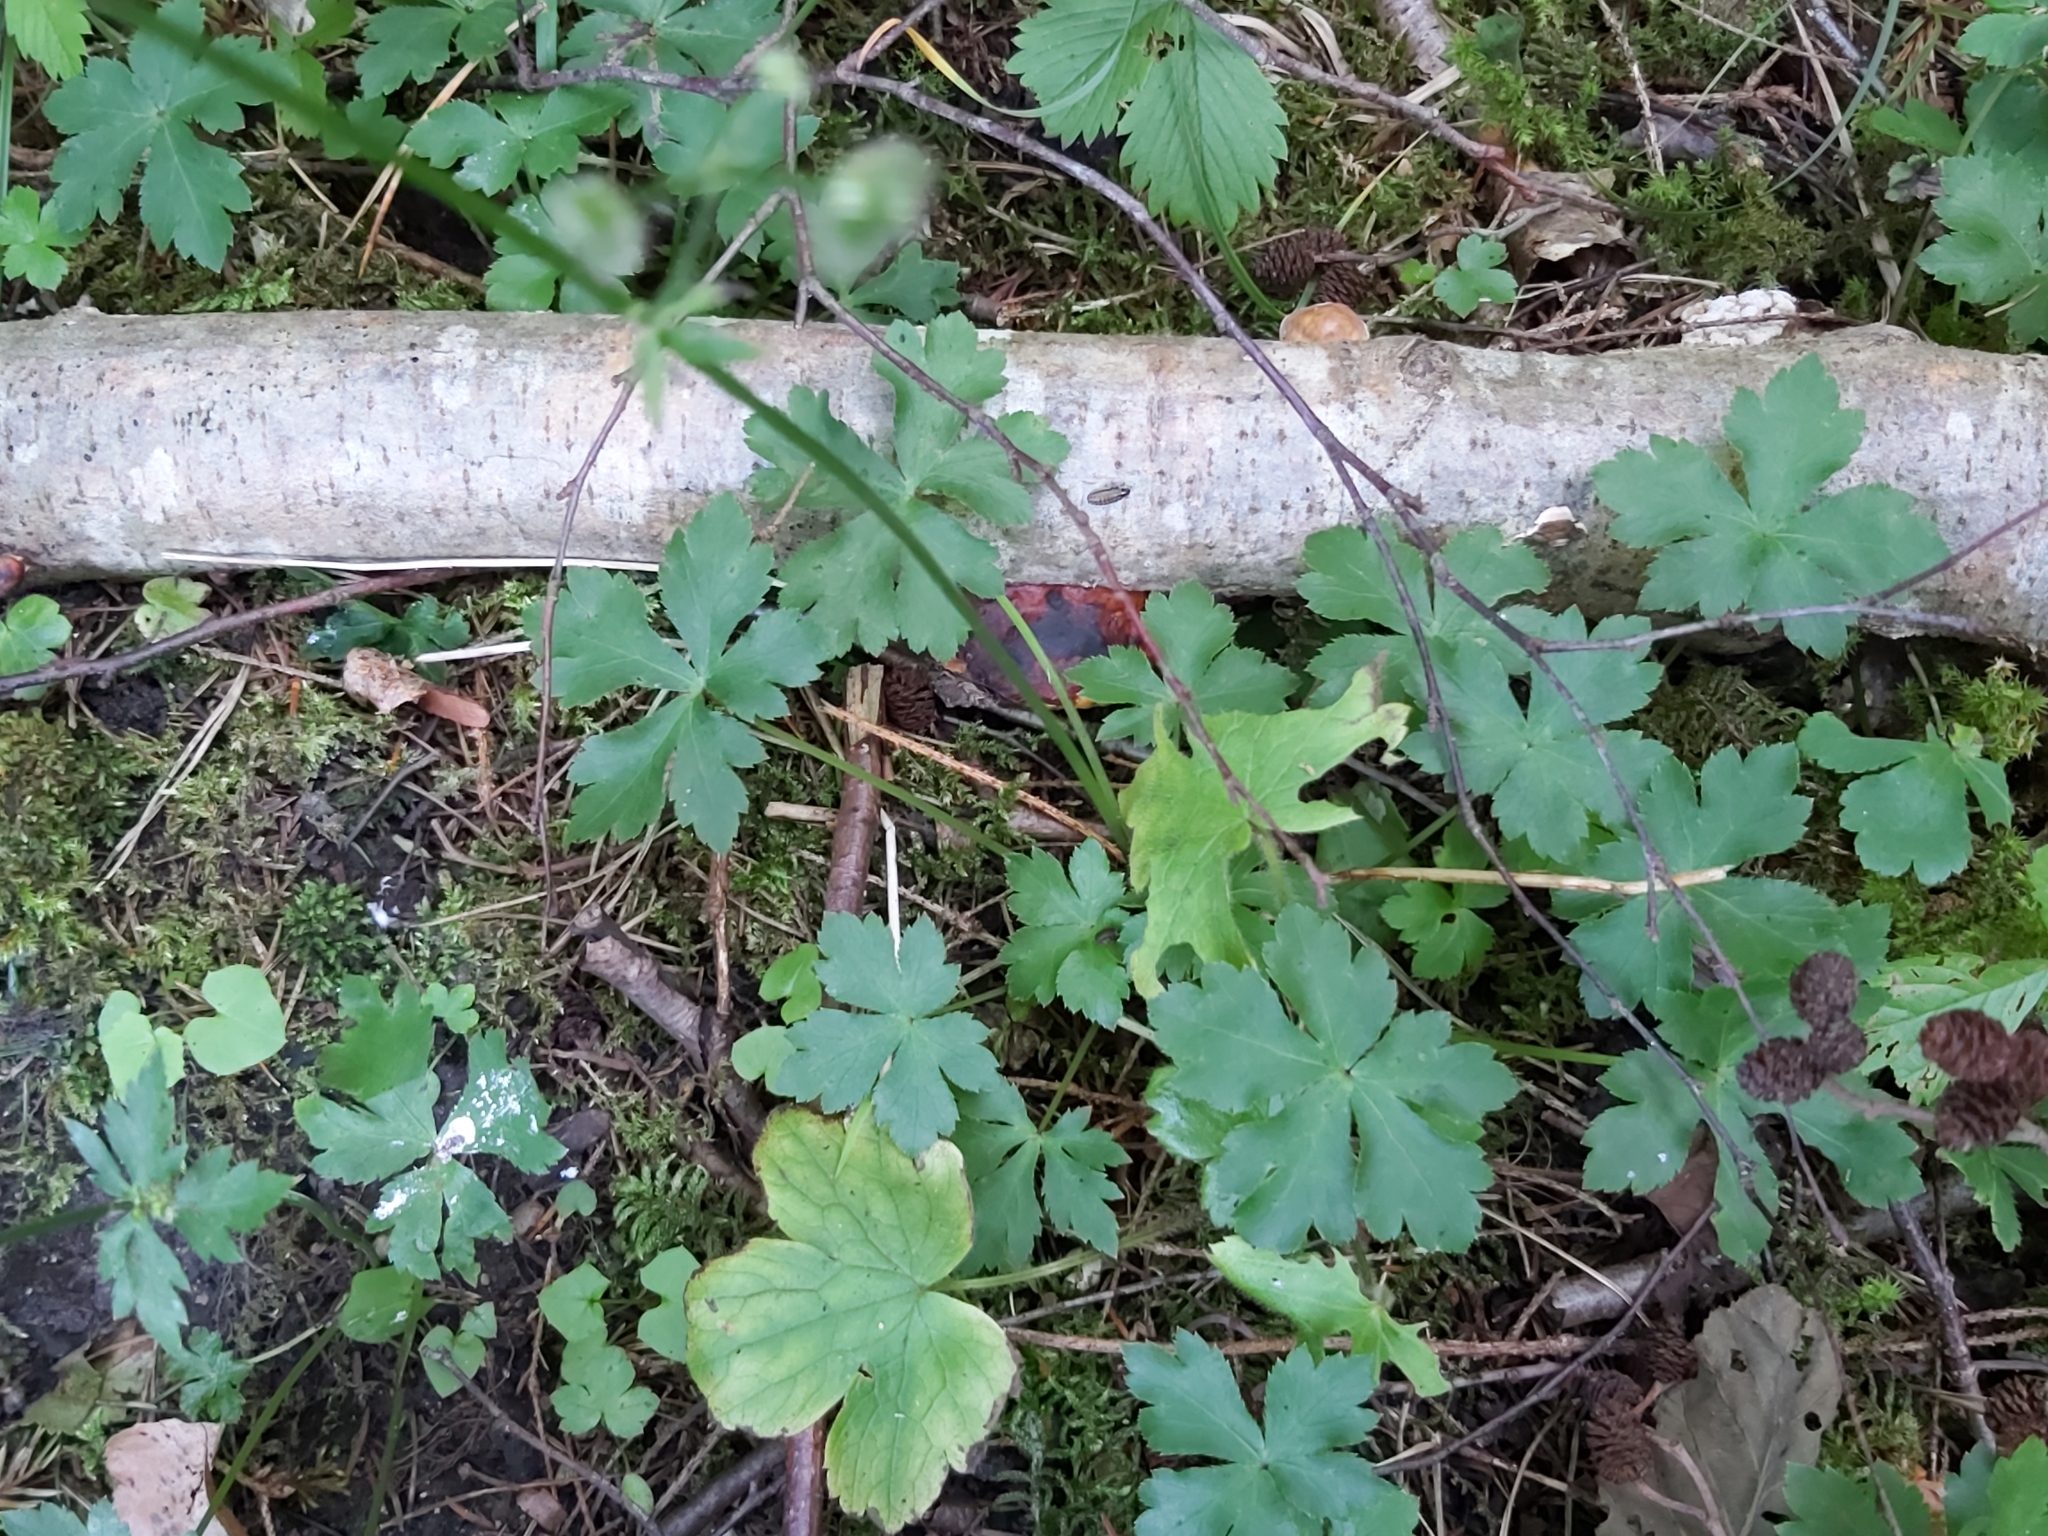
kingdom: Plantae
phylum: Tracheophyta
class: Magnoliopsida
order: Apiales
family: Apiaceae
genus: Sanicula
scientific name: Sanicula europaea
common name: Sanicle
